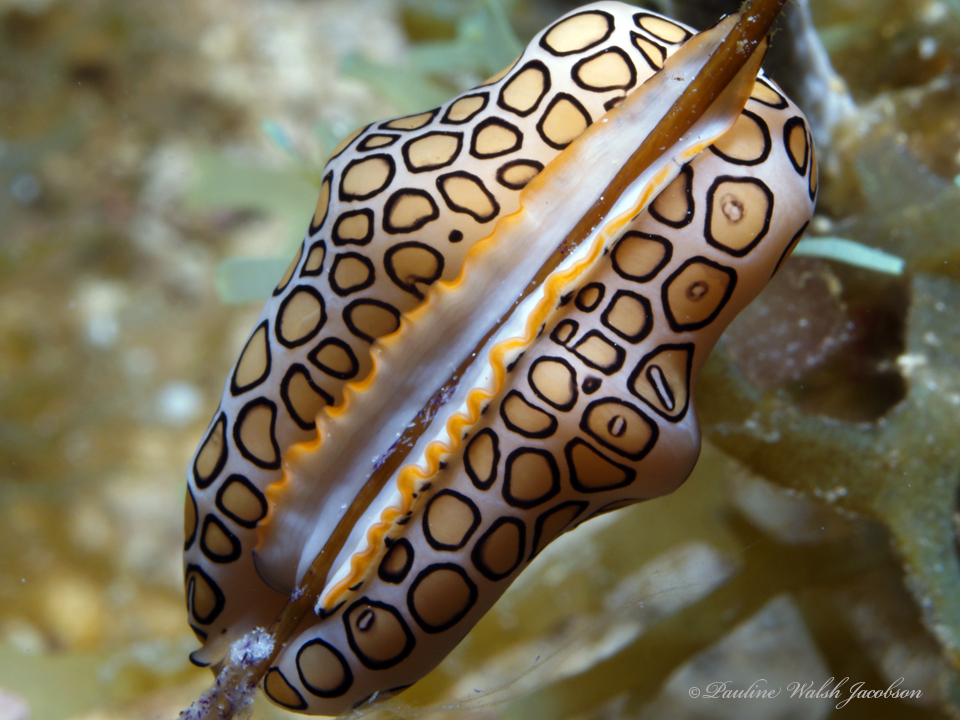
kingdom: Animalia
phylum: Mollusca
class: Gastropoda
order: Littorinimorpha
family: Ovulidae
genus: Cyphoma
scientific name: Cyphoma gibbosum
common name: Flamingo tongue
